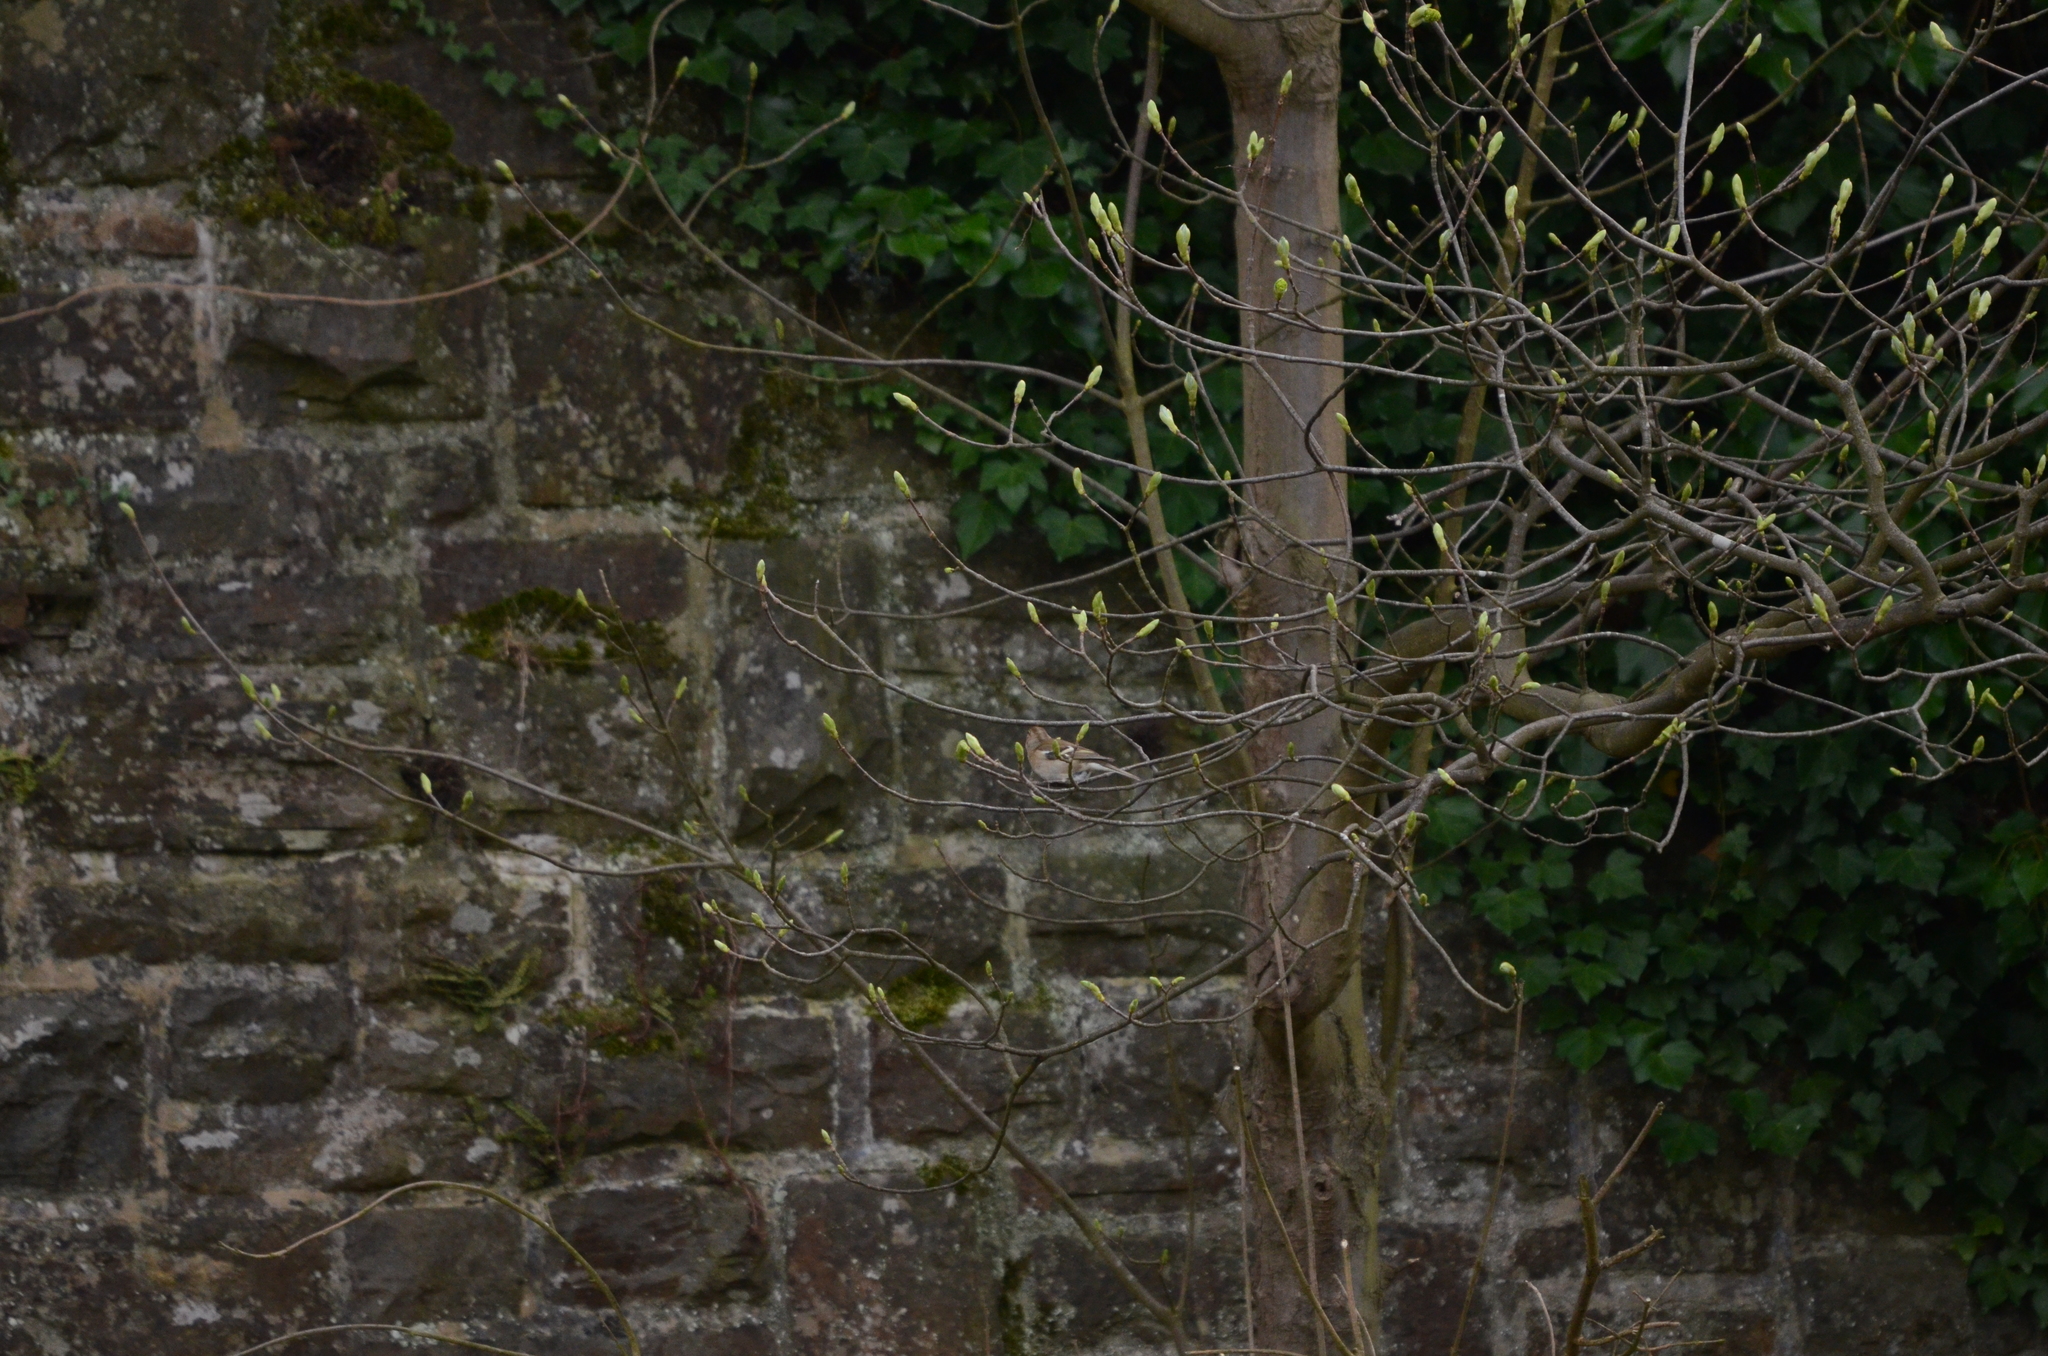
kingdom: Animalia
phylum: Chordata
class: Aves
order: Passeriformes
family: Fringillidae
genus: Fringilla
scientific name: Fringilla coelebs
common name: Common chaffinch
